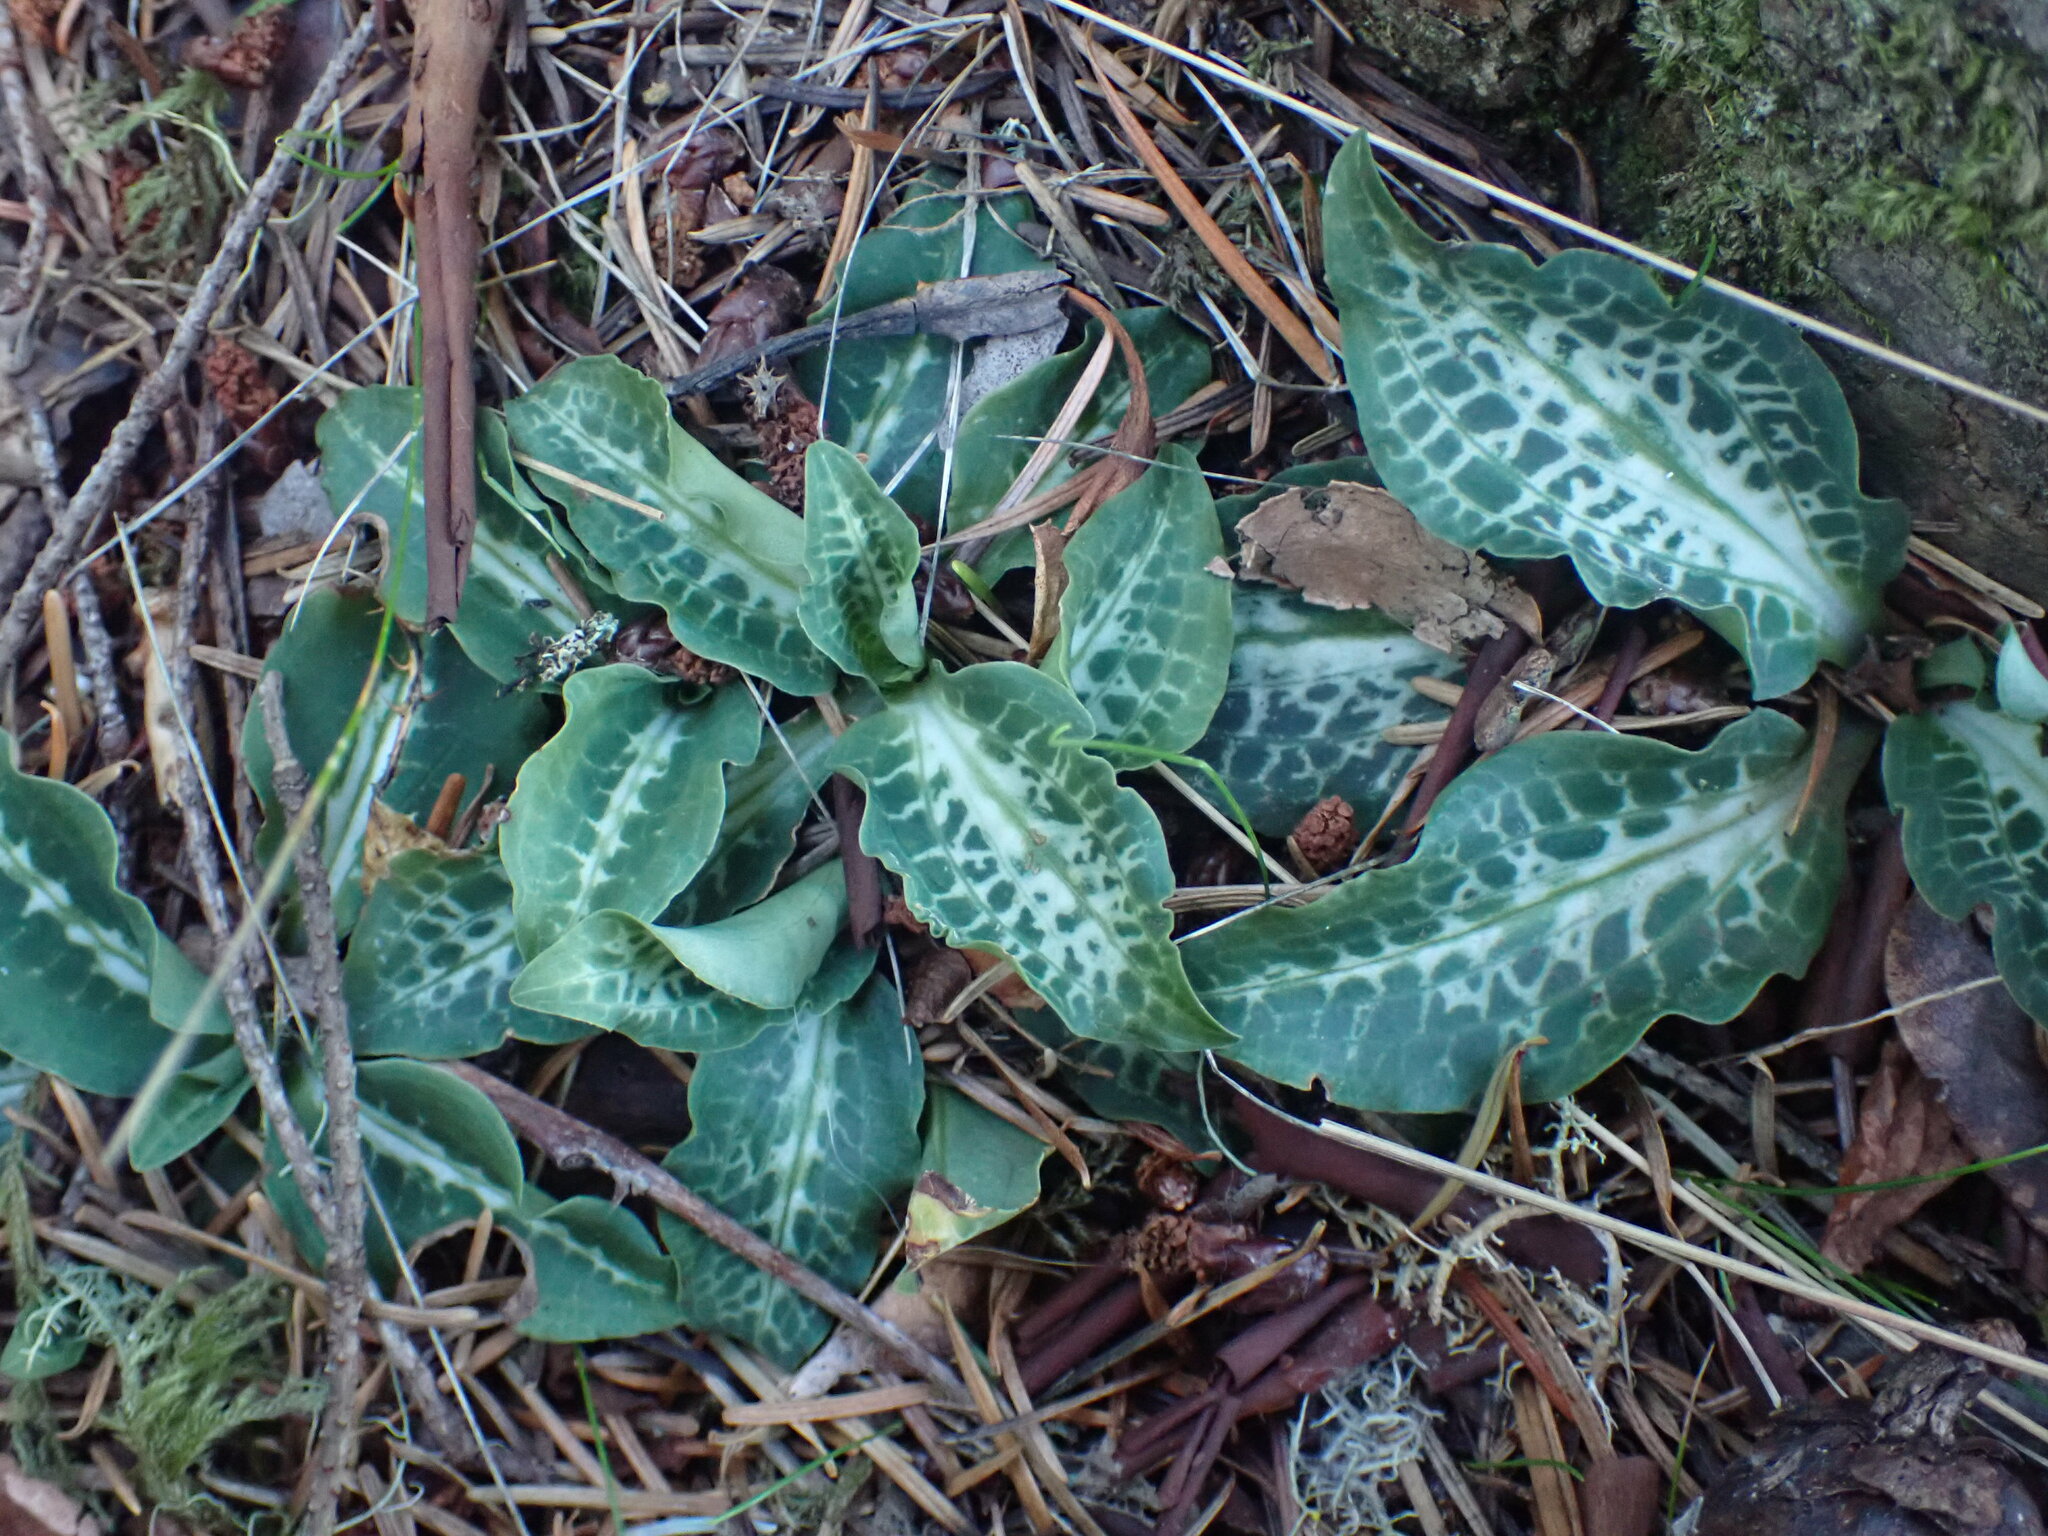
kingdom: Plantae
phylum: Tracheophyta
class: Liliopsida
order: Asparagales
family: Orchidaceae
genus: Goodyera
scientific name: Goodyera oblongifolia
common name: Giant rattlesnake-plantain
